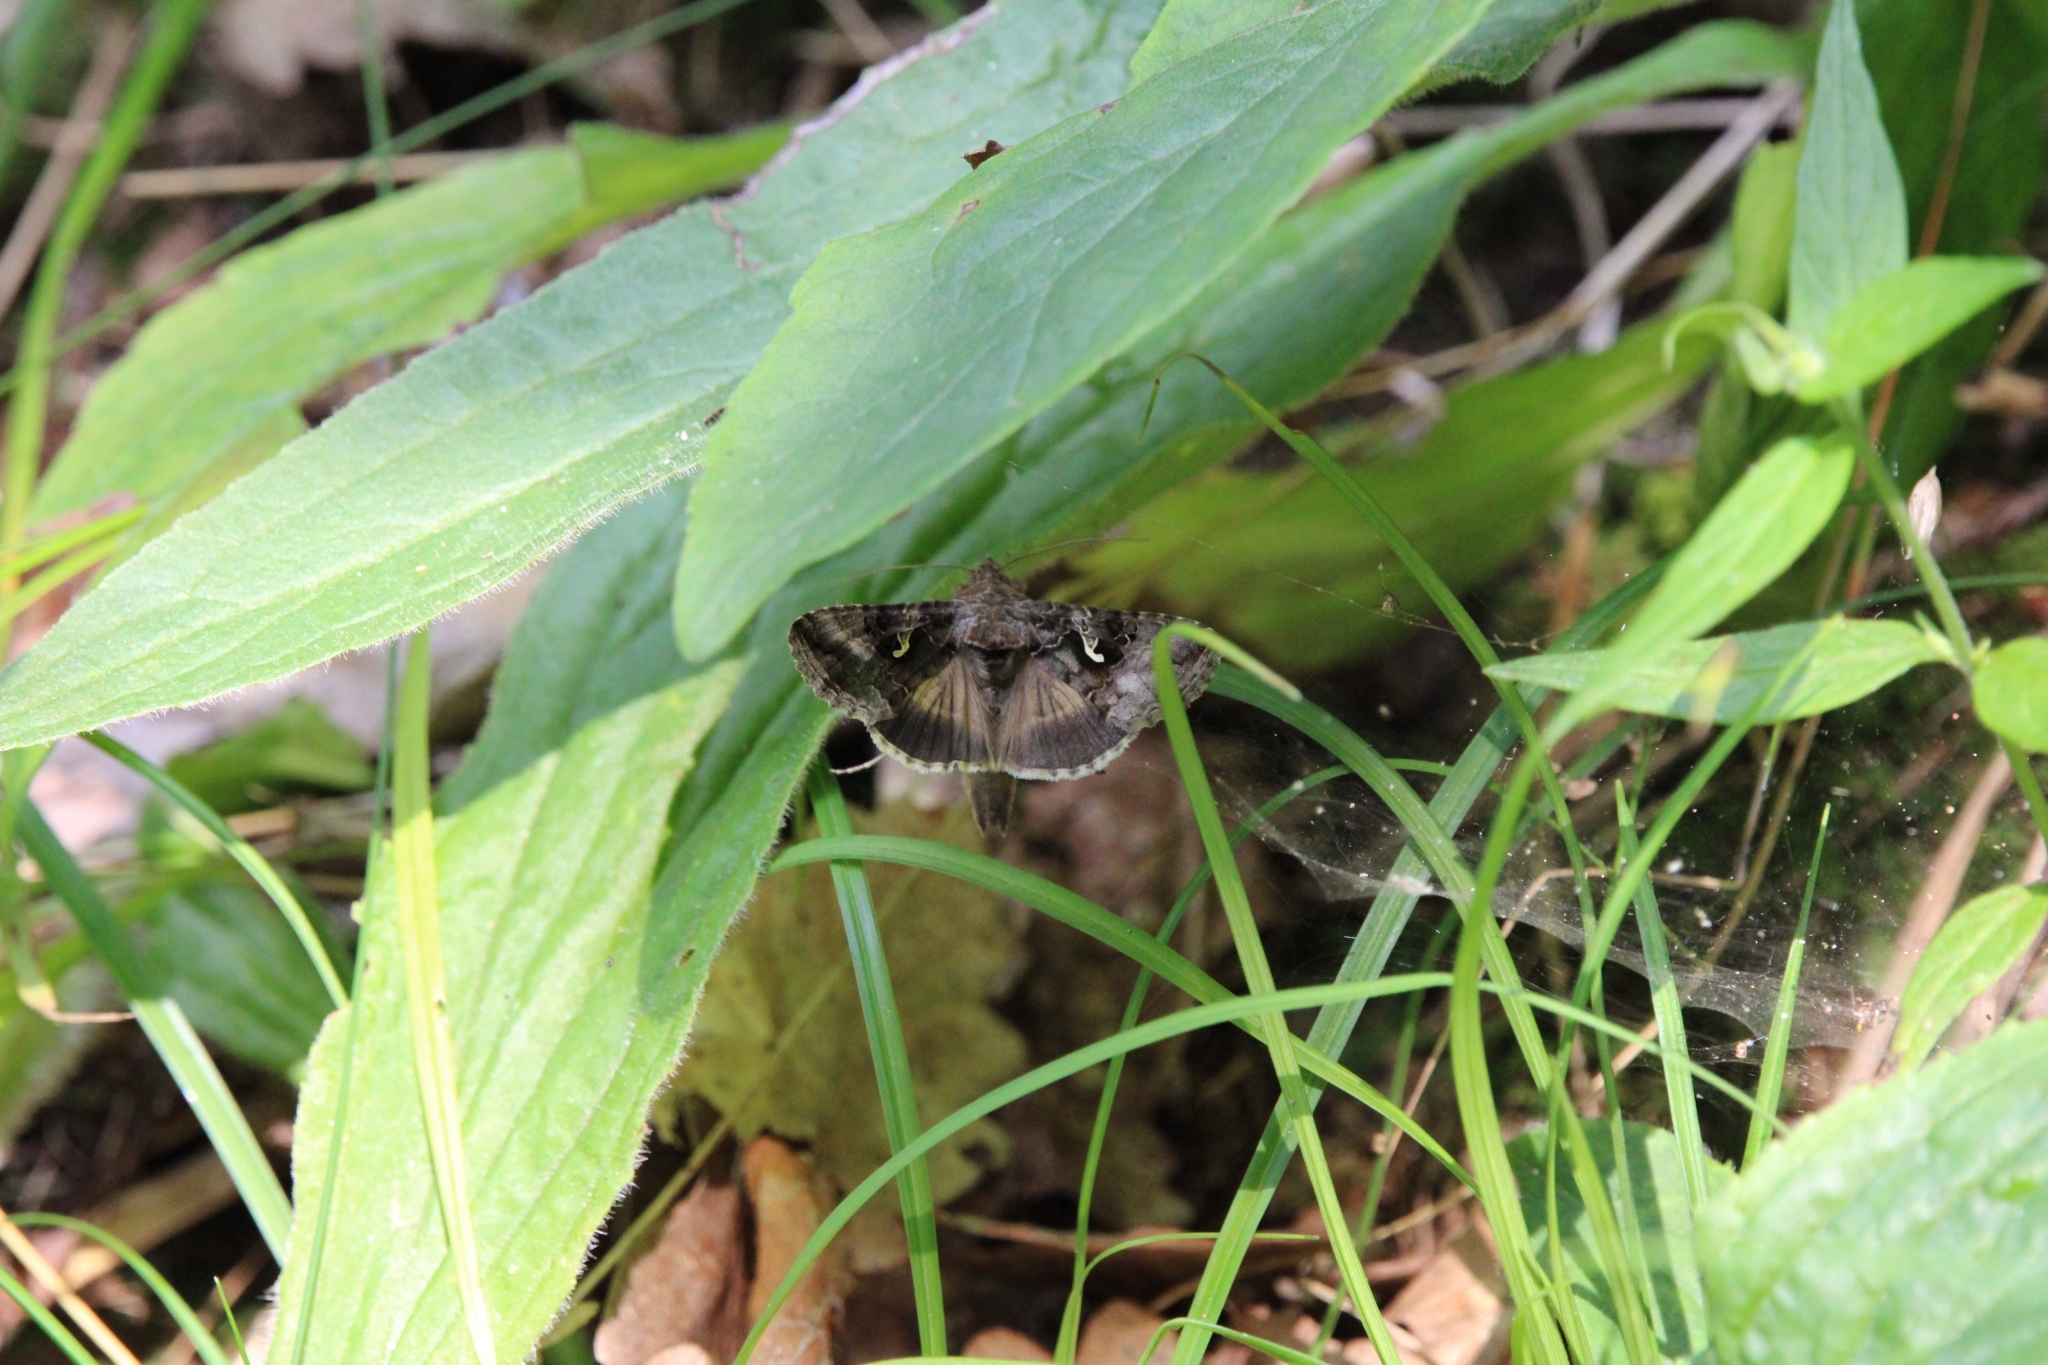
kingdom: Animalia
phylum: Arthropoda
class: Insecta
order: Lepidoptera
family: Noctuidae
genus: Autographa
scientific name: Autographa gamma
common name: Silver y
